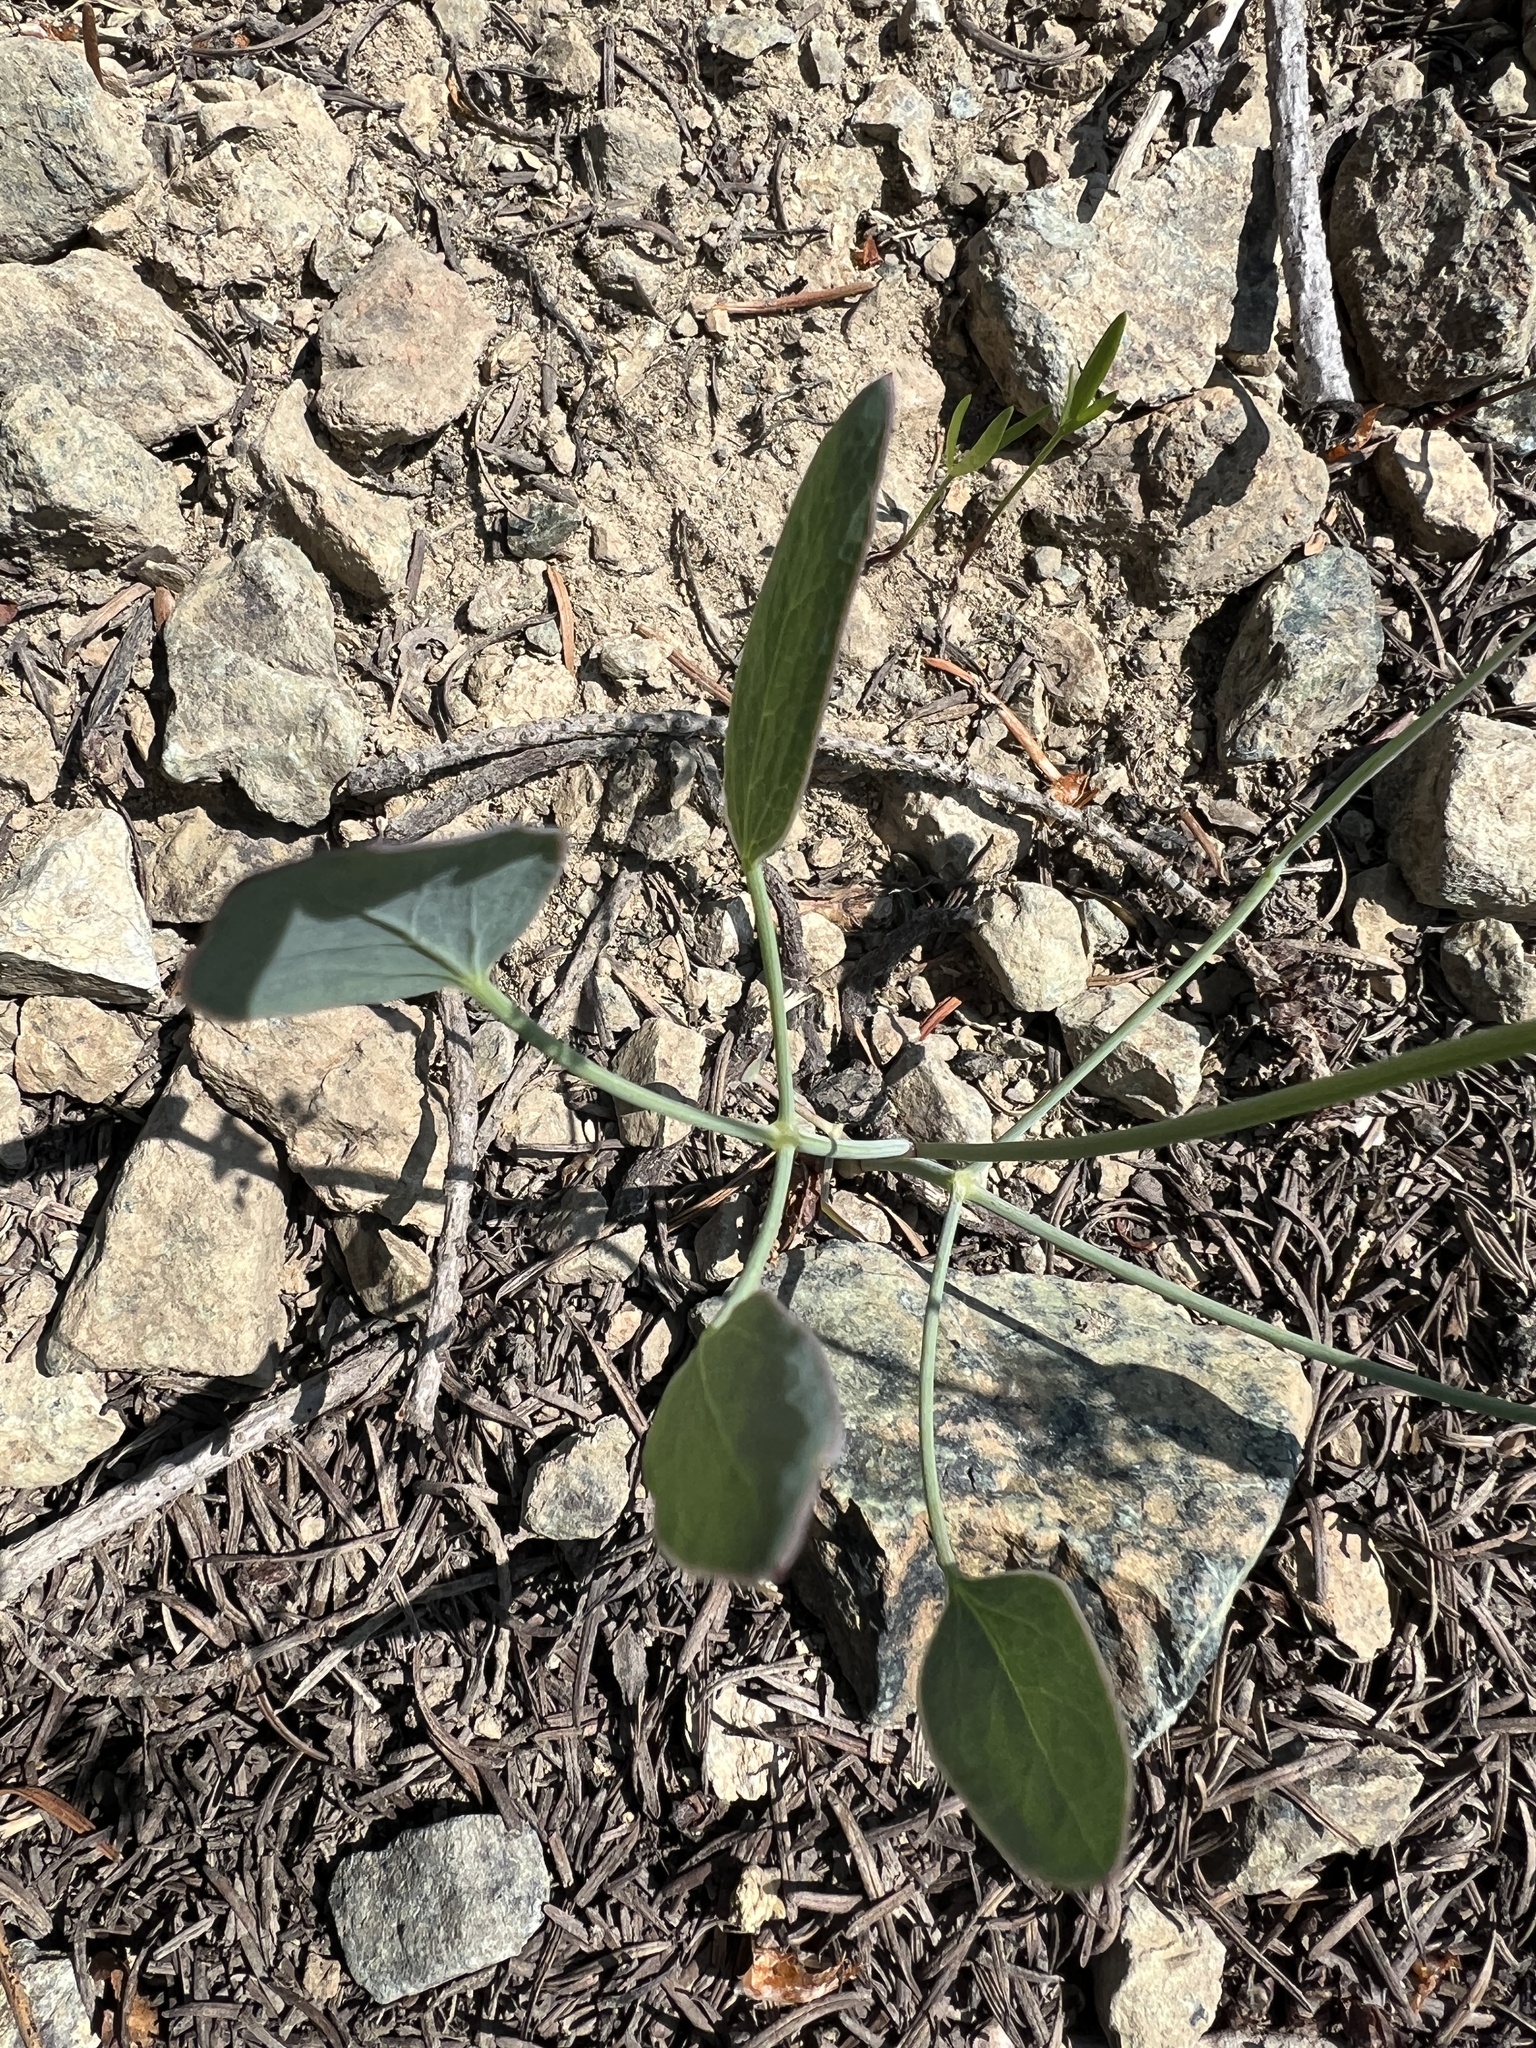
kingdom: Plantae
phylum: Tracheophyta
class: Magnoliopsida
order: Apiales
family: Apiaceae
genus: Lomatium
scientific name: Lomatium nudicaule
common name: Pestle lomatium
